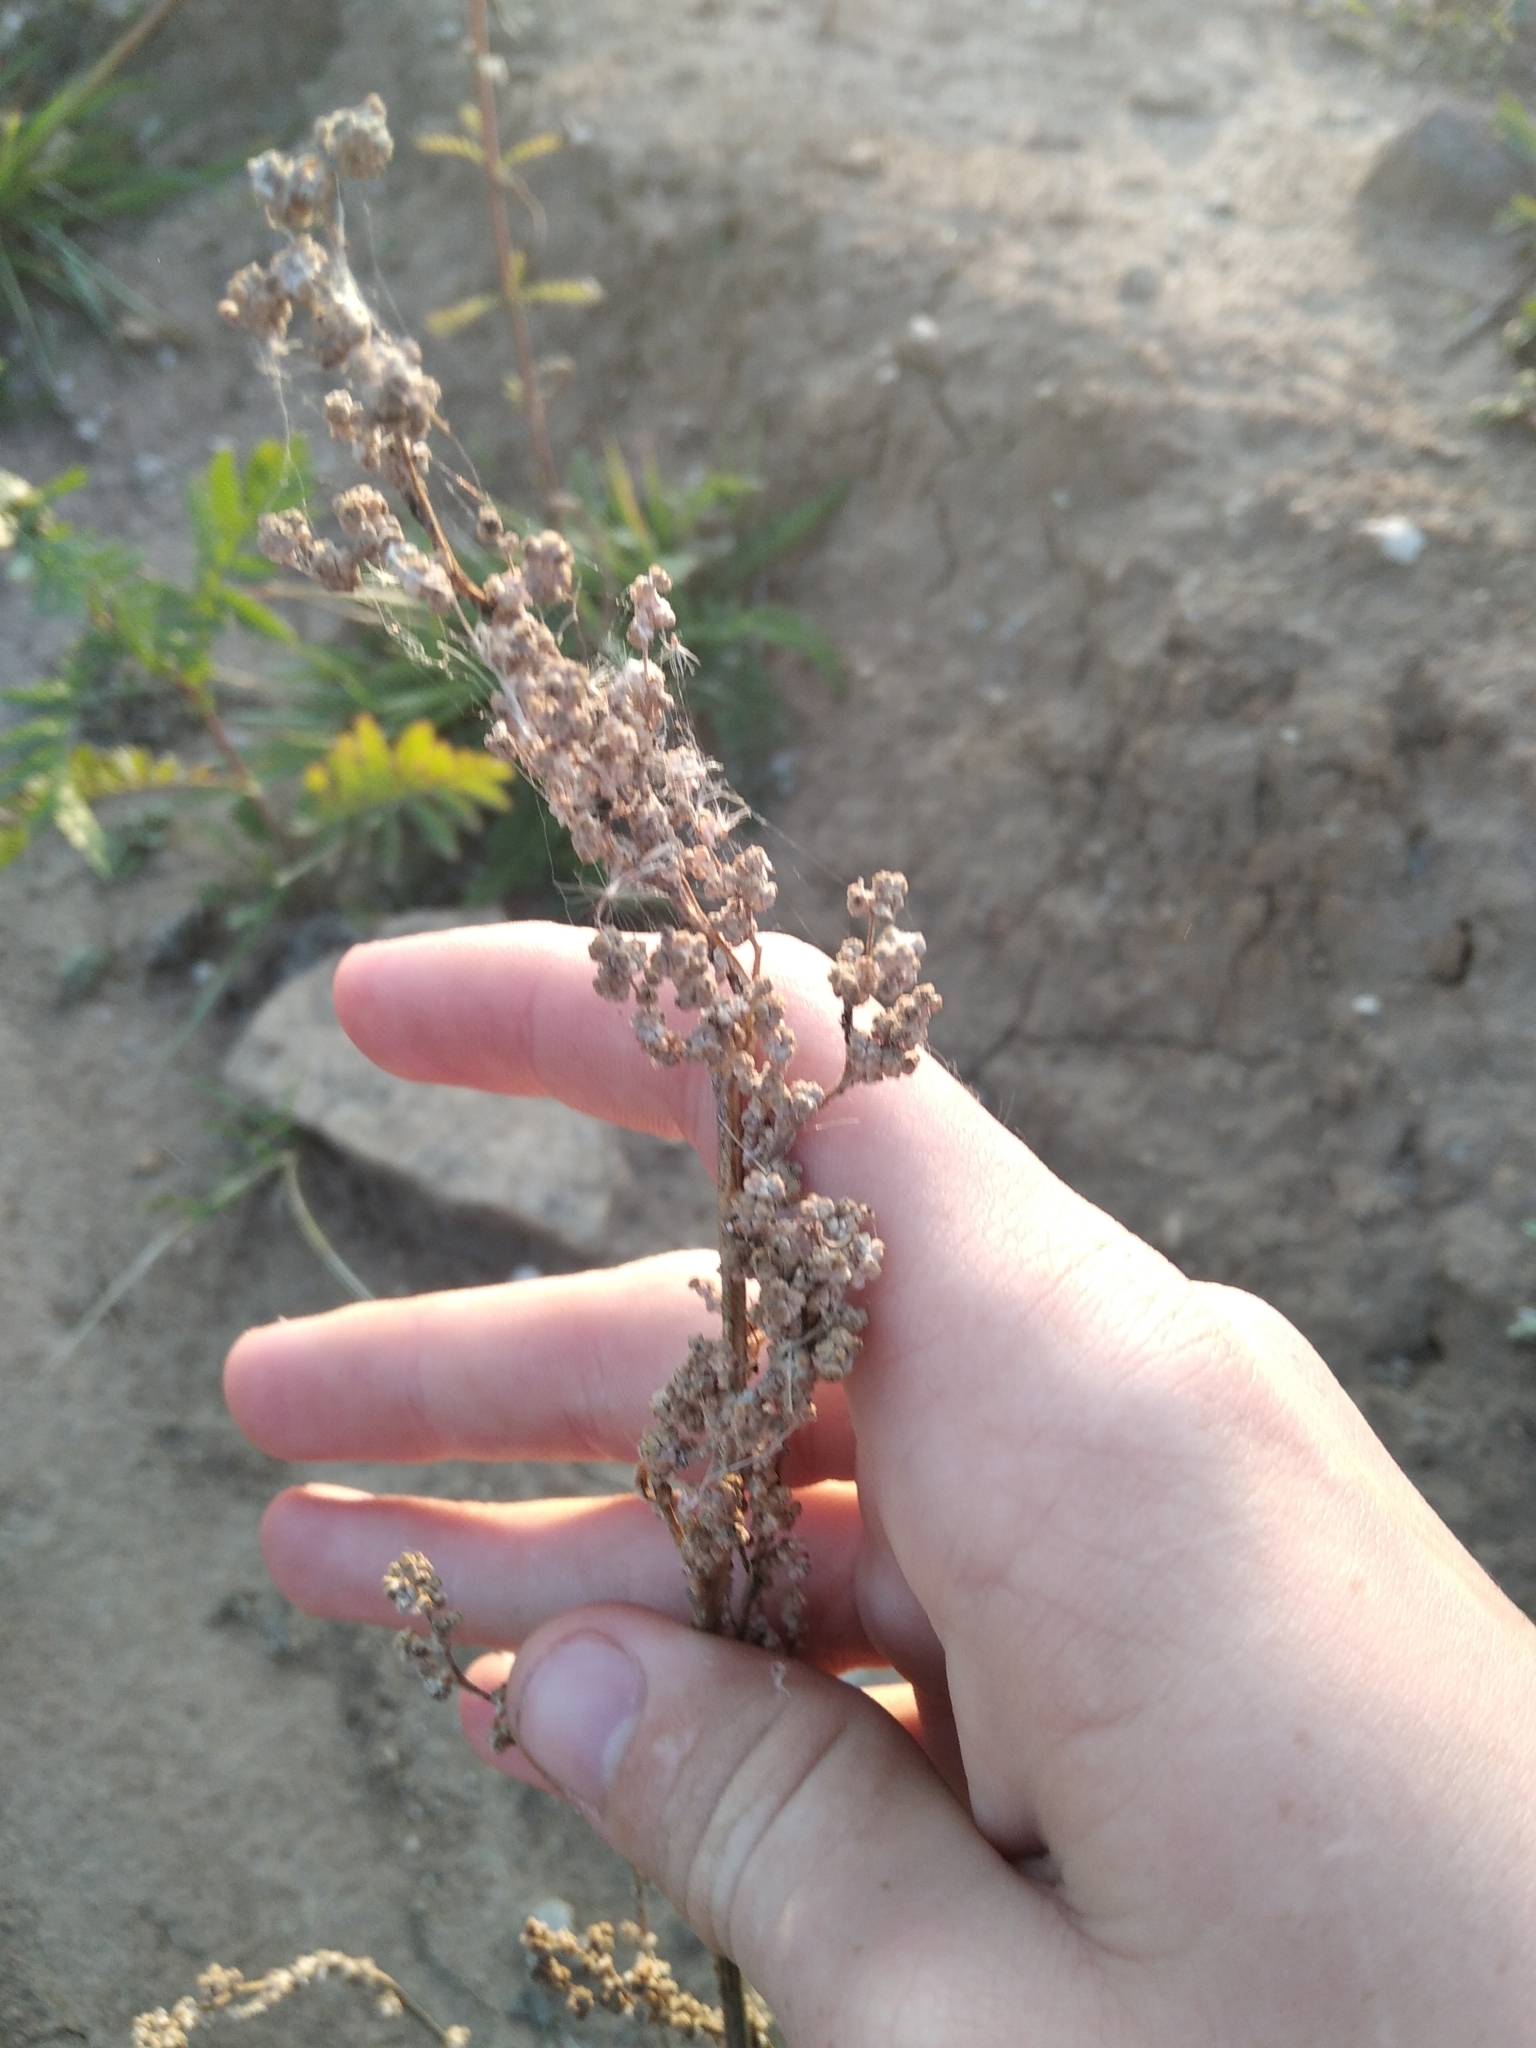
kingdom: Plantae
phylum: Tracheophyta
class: Magnoliopsida
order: Caryophyllales
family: Amaranthaceae
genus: Chenopodium
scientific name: Chenopodium album
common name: Fat-hen
